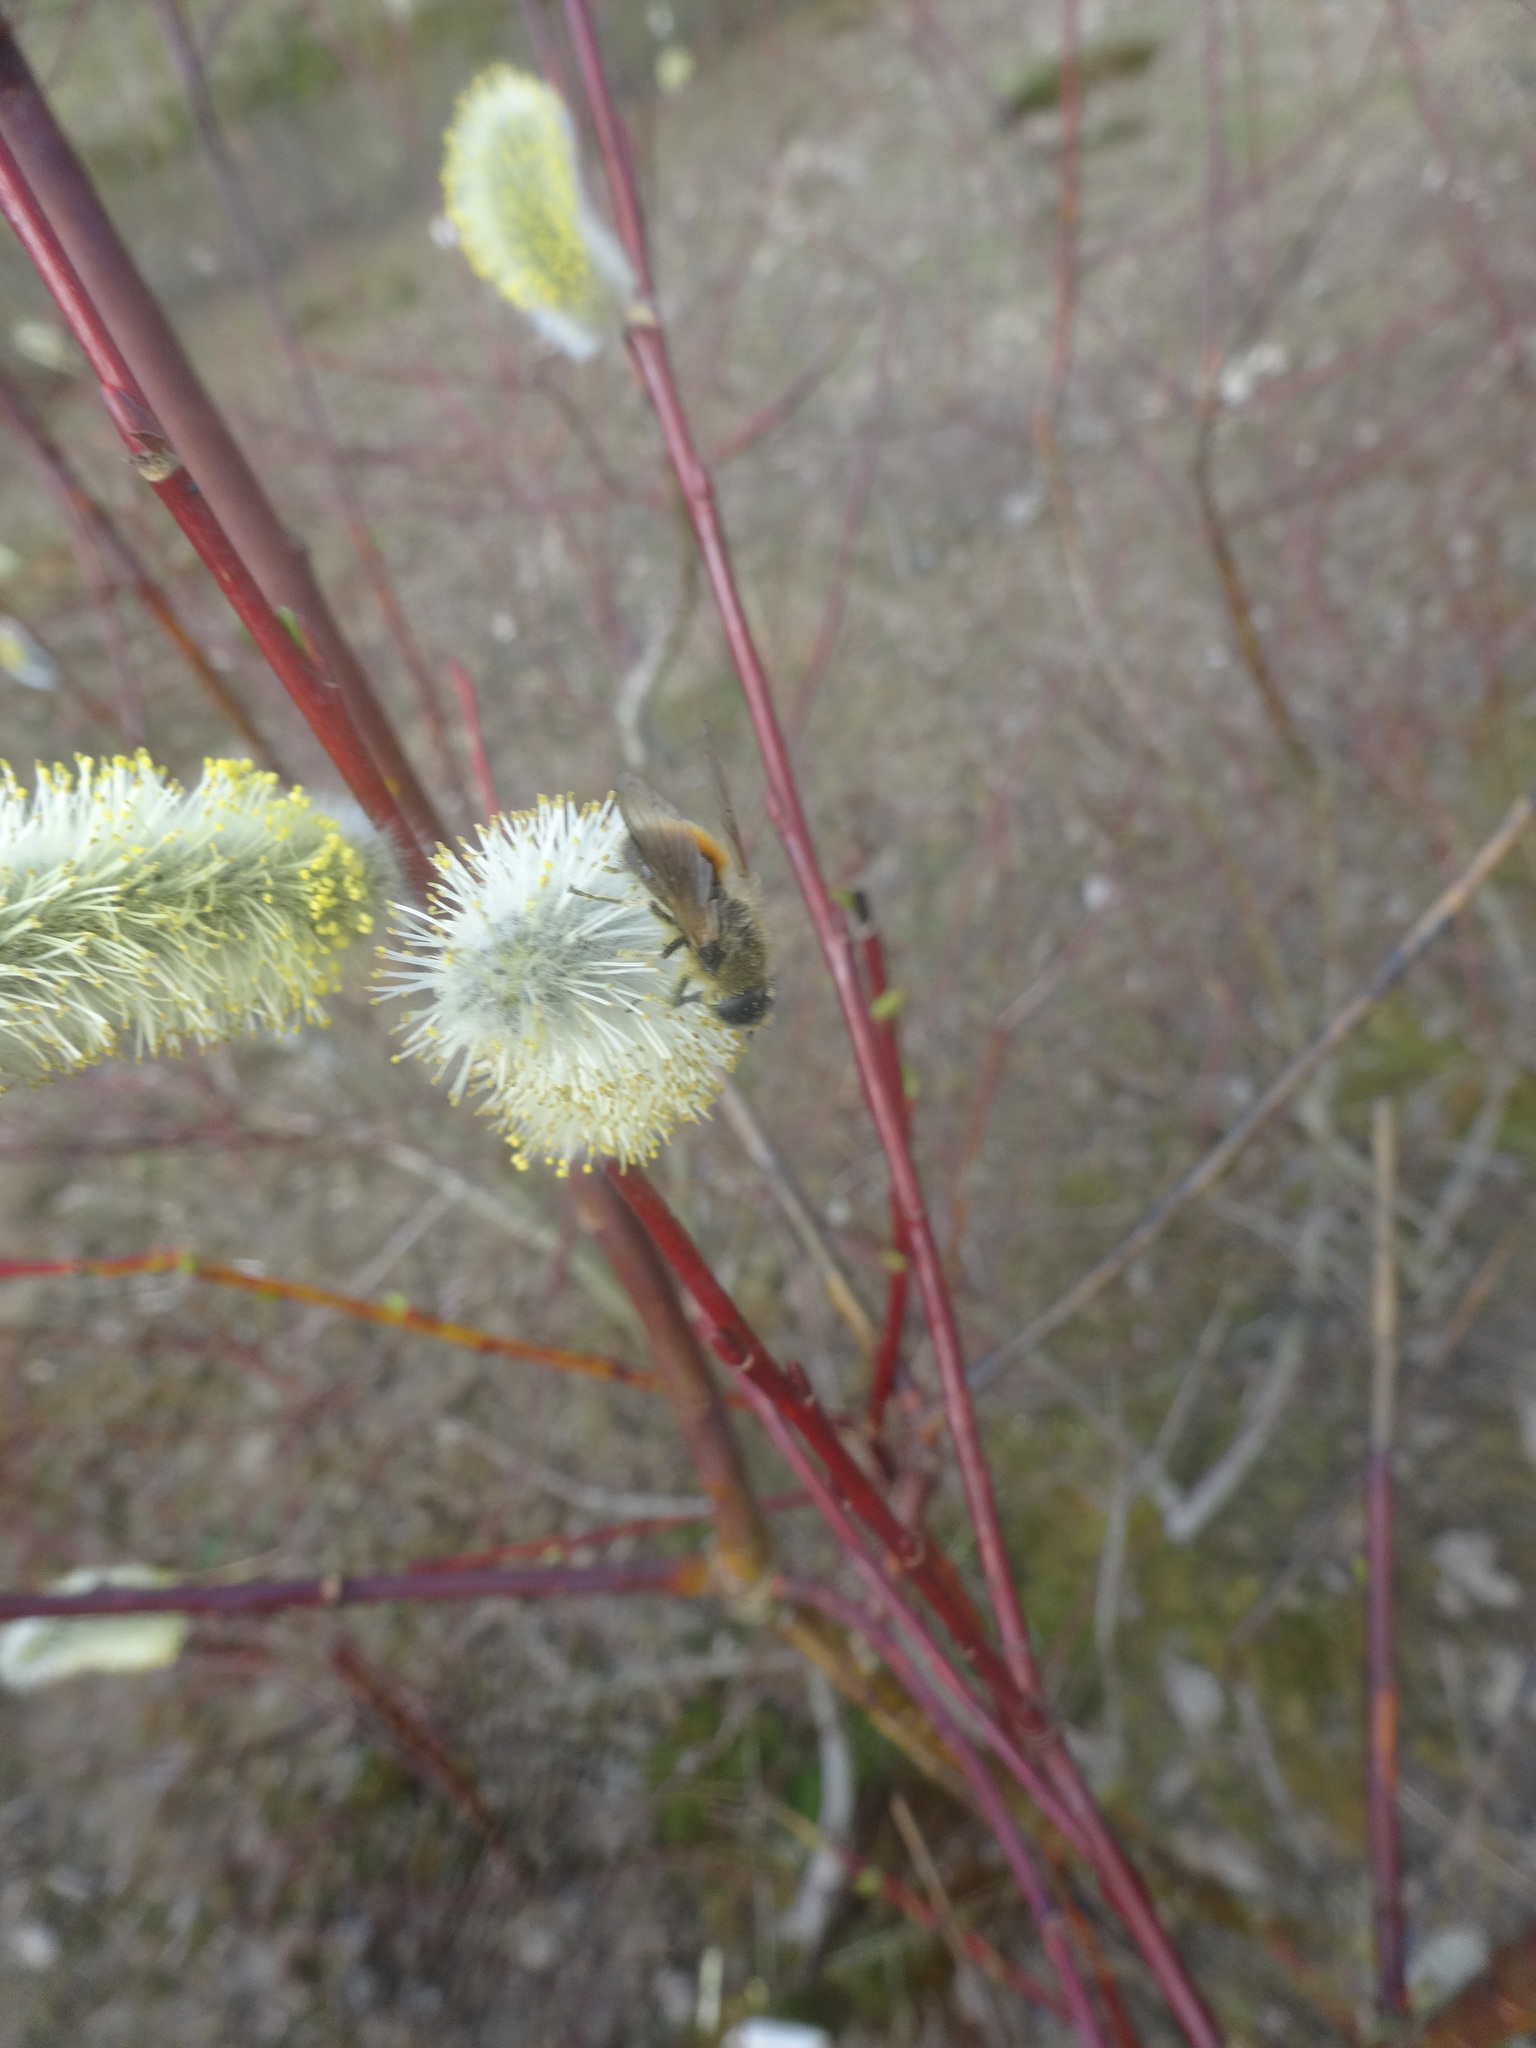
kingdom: Animalia
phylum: Arthropoda
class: Insecta
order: Diptera
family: Syrphidae
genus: Cheilosia
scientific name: Cheilosia corydon
